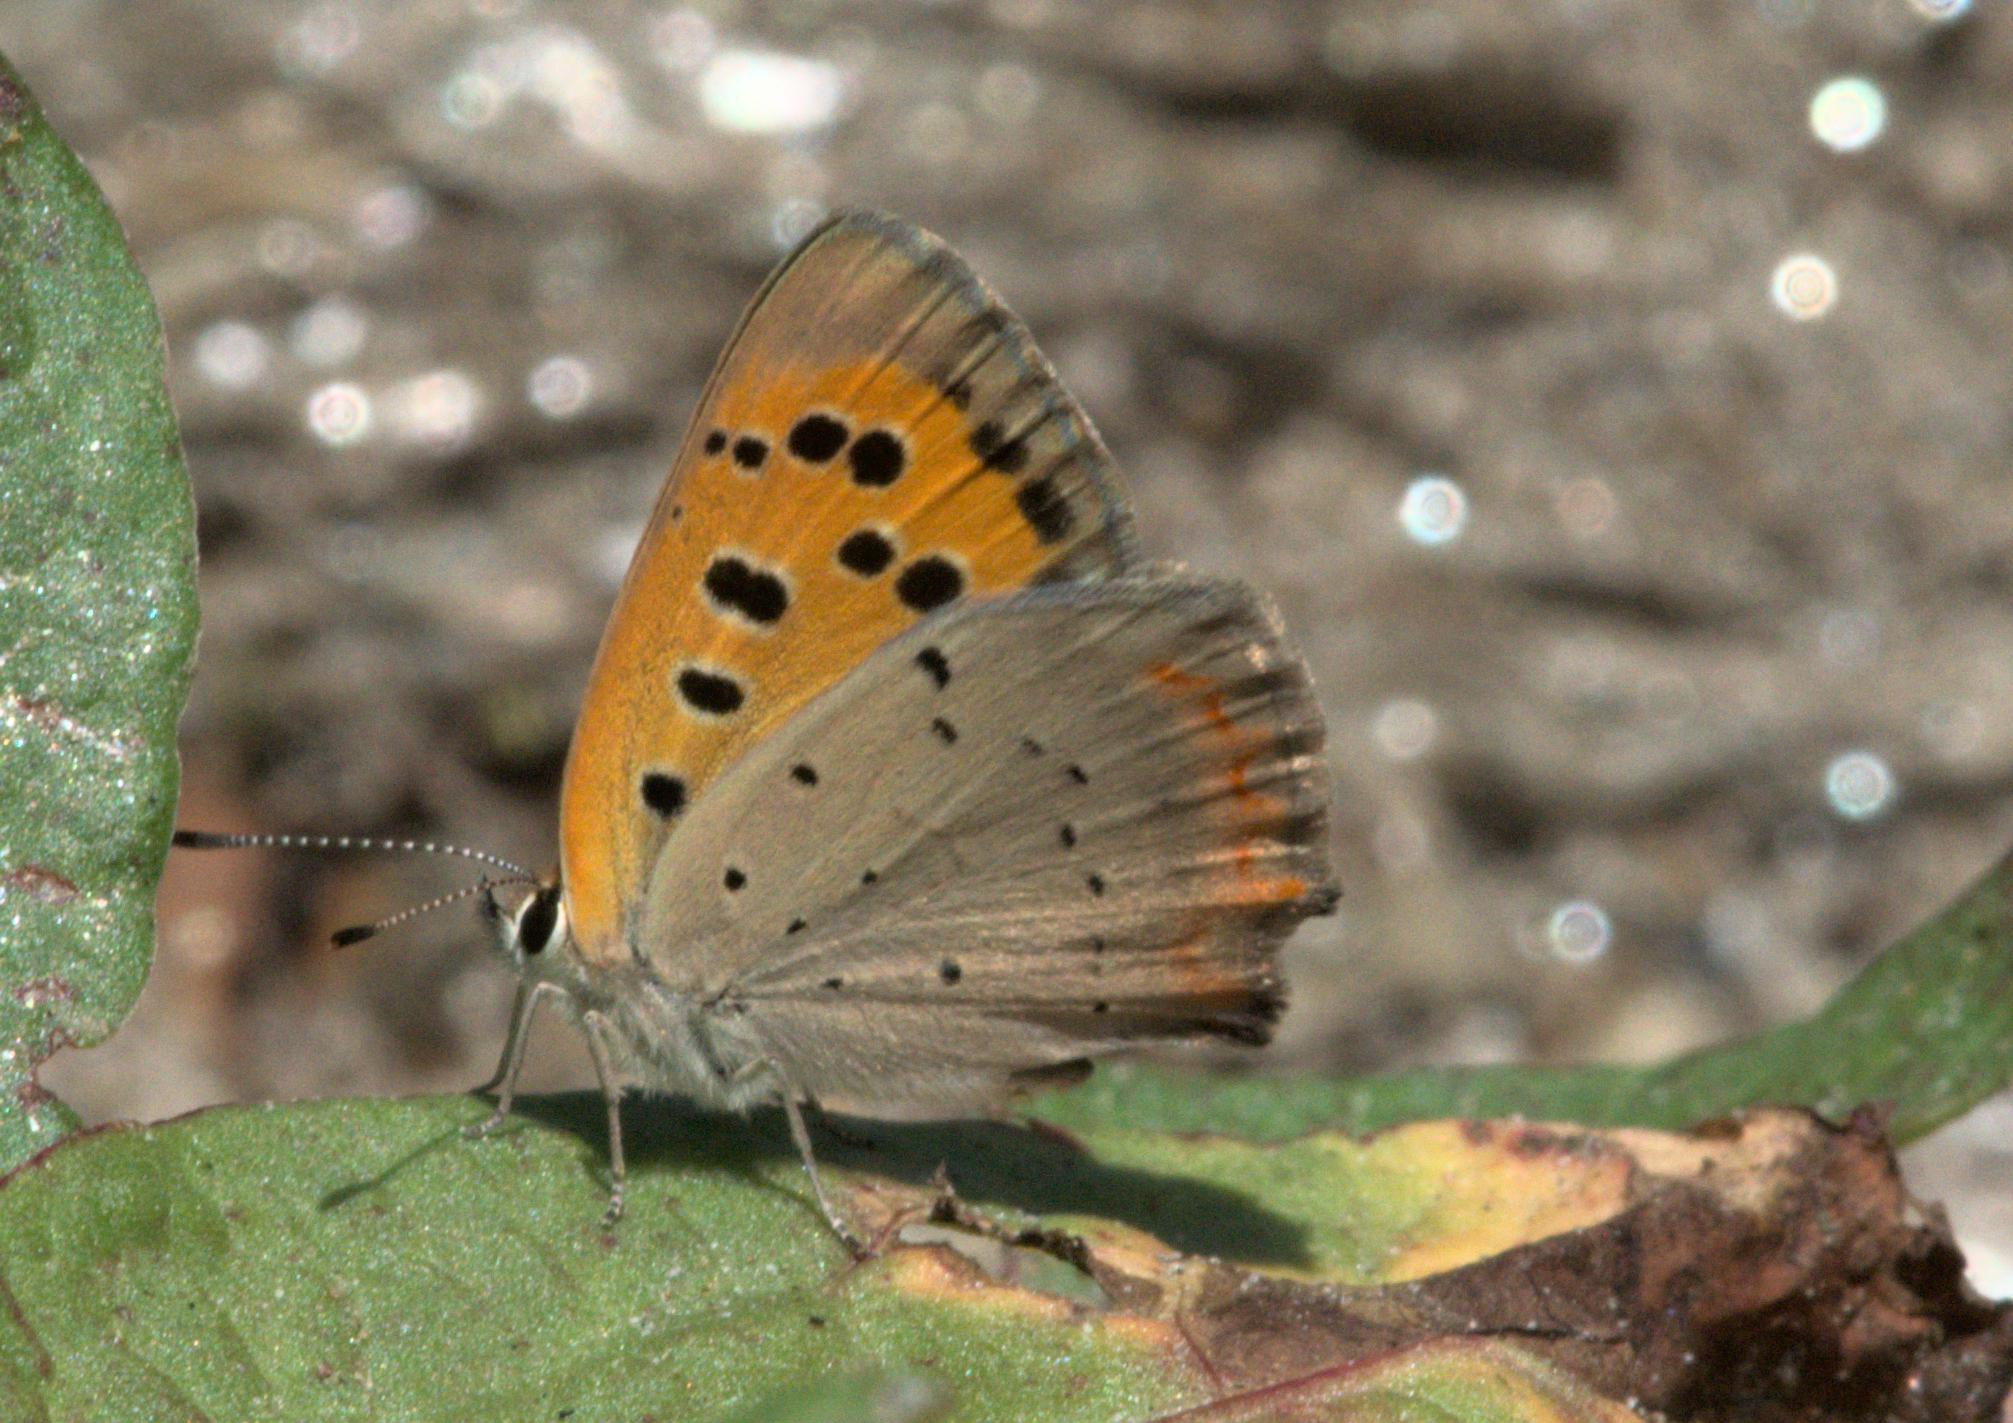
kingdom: Animalia
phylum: Arthropoda
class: Insecta
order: Lepidoptera
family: Lycaenidae
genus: Lycaena
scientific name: Lycaena phlaeas
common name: Small copper
